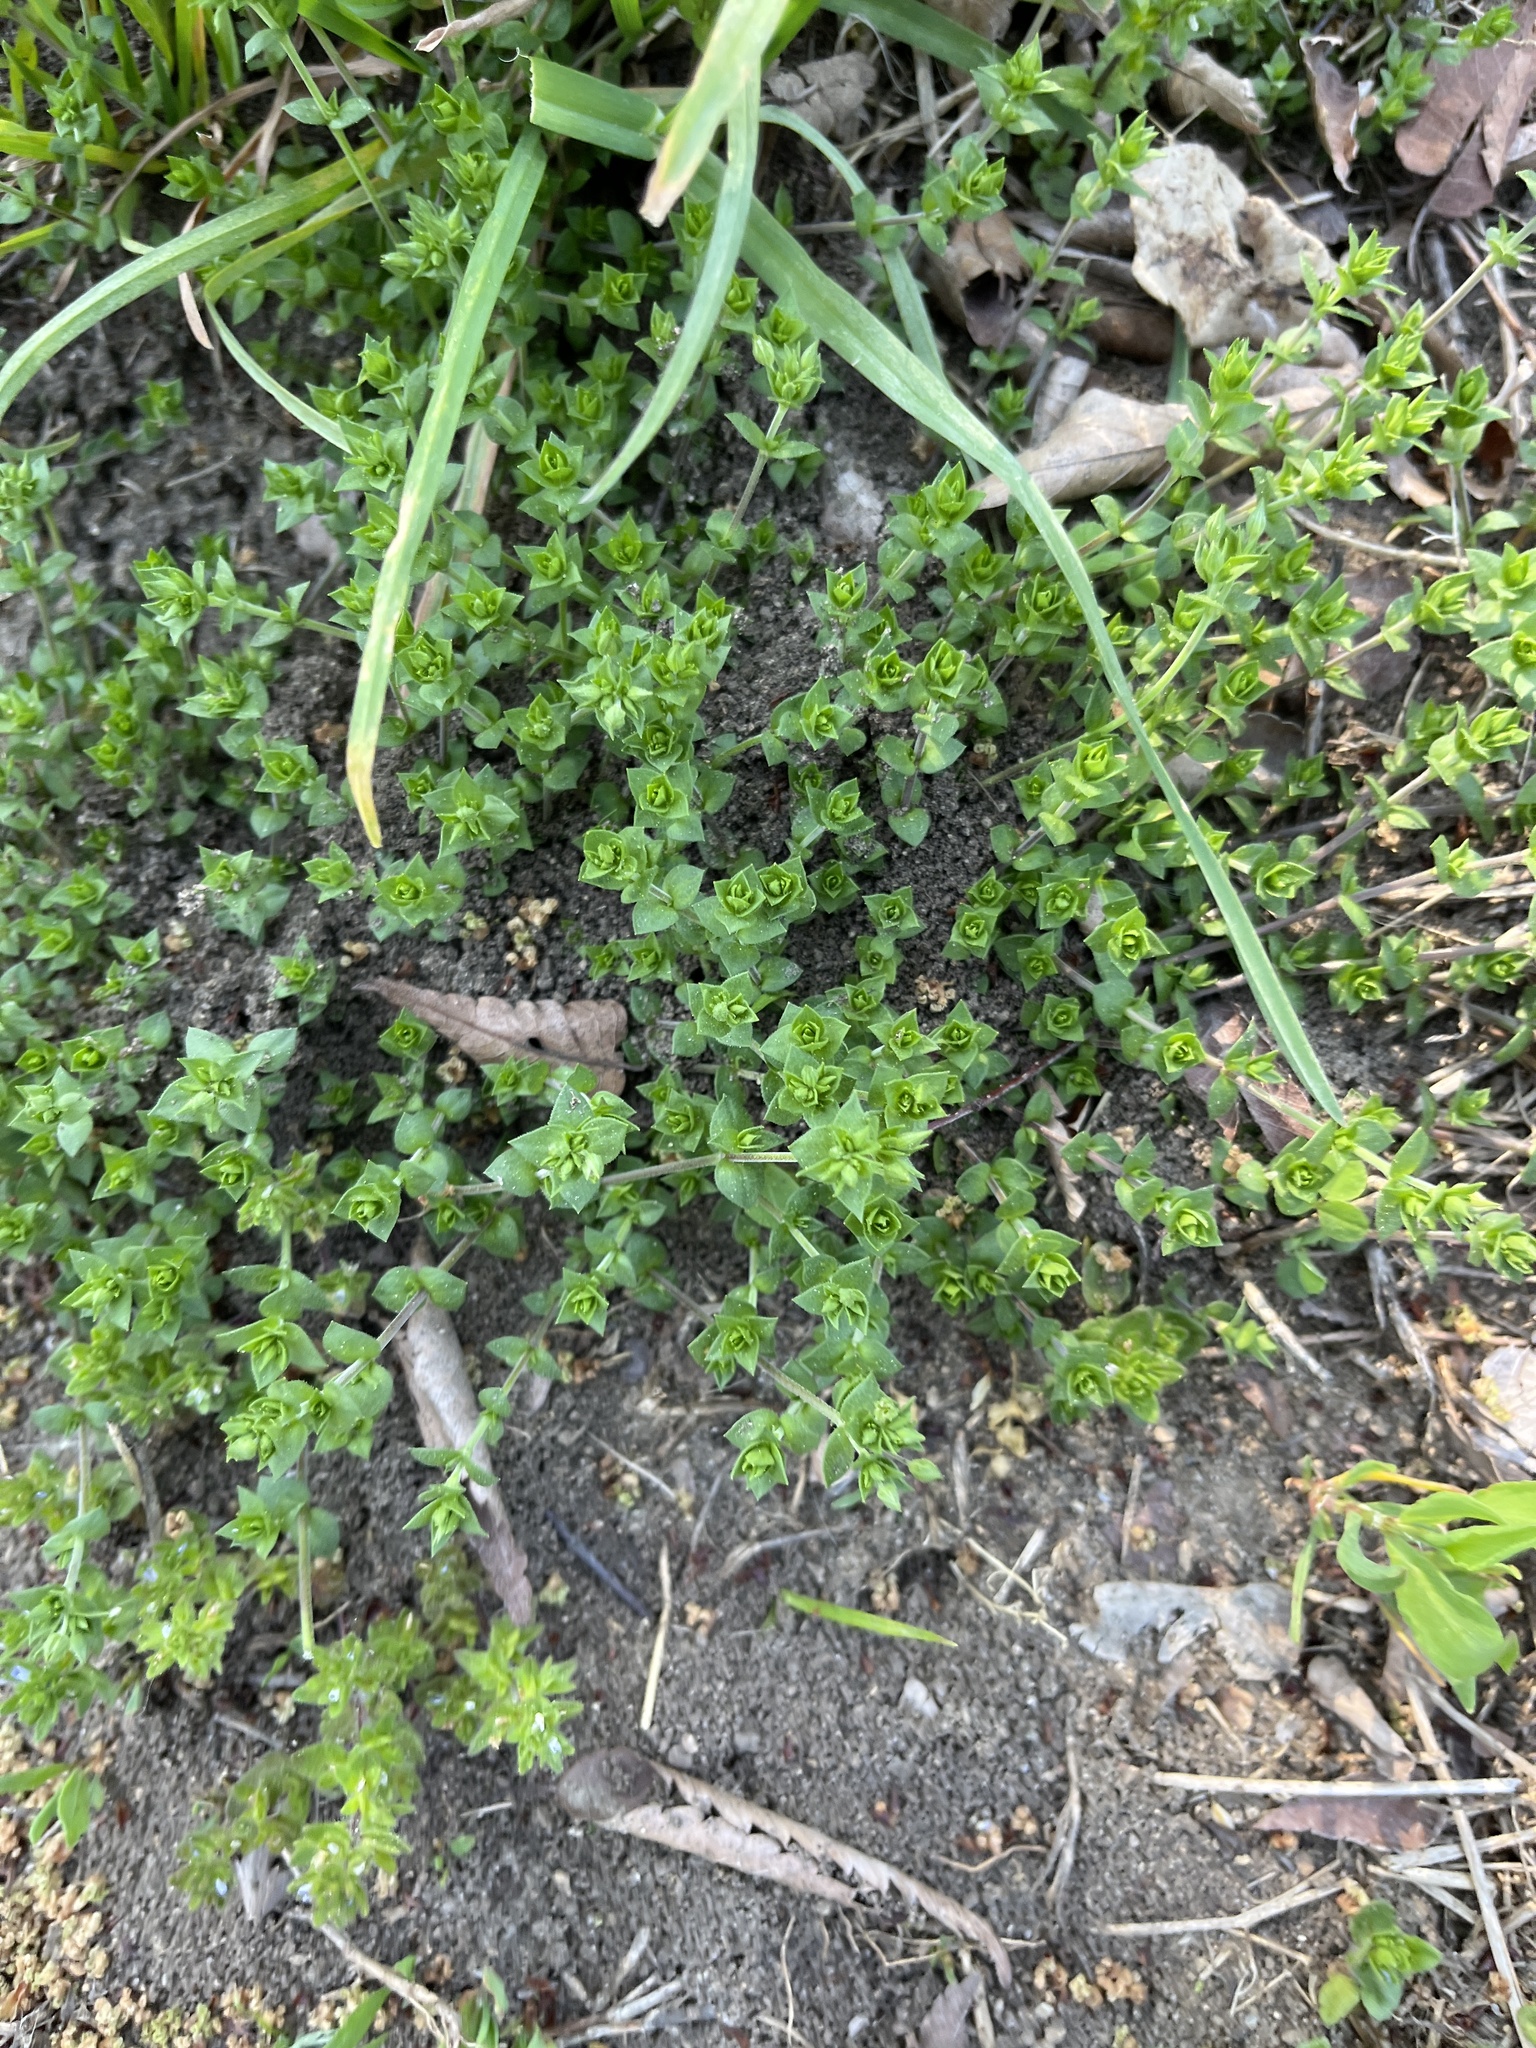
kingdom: Plantae
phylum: Tracheophyta
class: Magnoliopsida
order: Caryophyllales
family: Caryophyllaceae
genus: Arenaria
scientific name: Arenaria serpyllifolia
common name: Thyme-leaved sandwort
